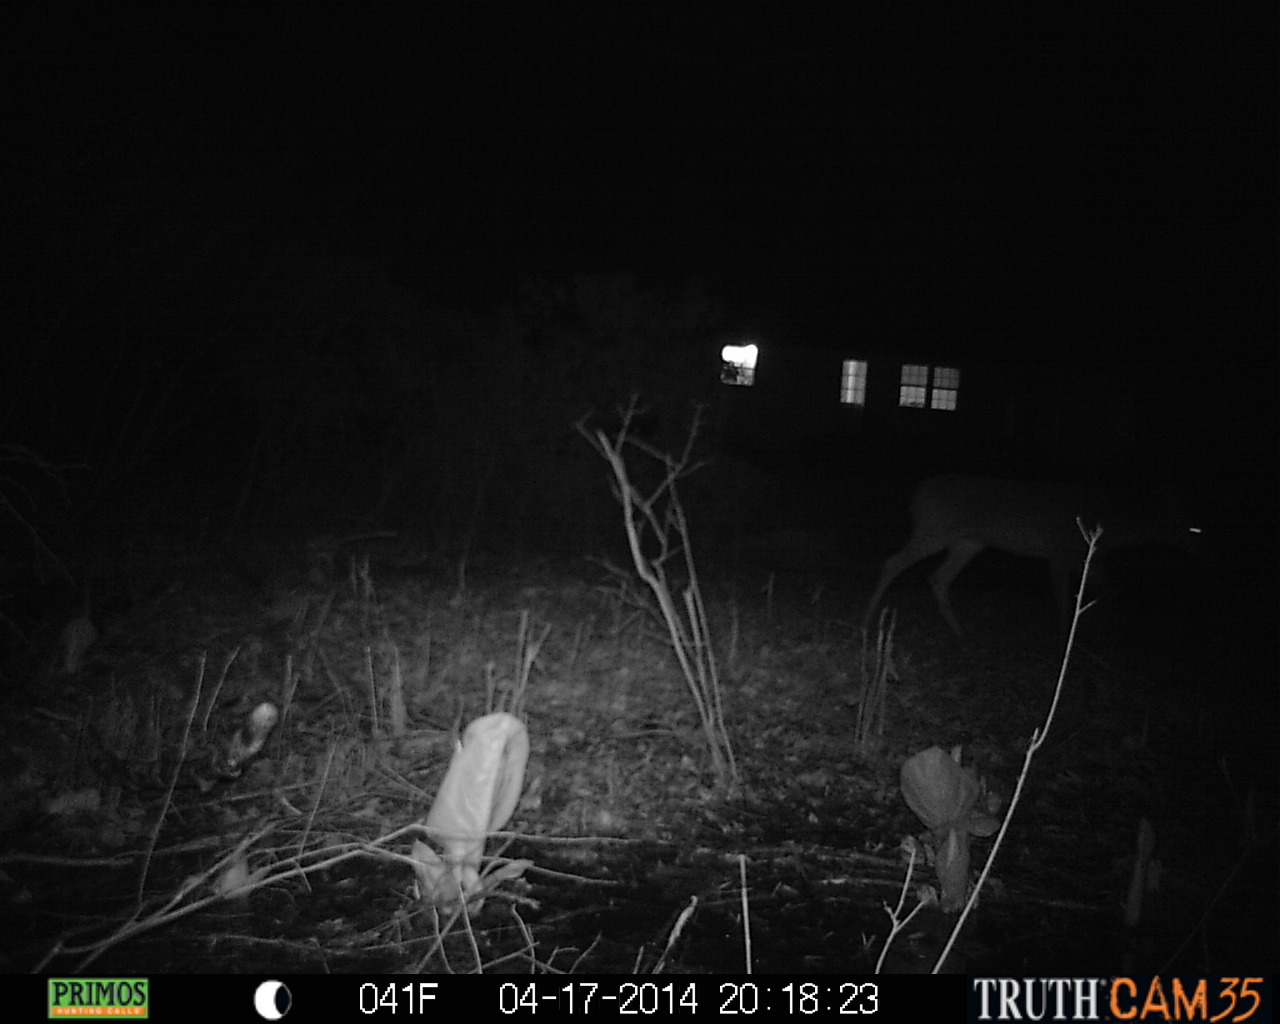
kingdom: Animalia
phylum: Chordata
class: Mammalia
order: Artiodactyla
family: Cervidae
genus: Odocoileus
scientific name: Odocoileus virginianus
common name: White-tailed deer
